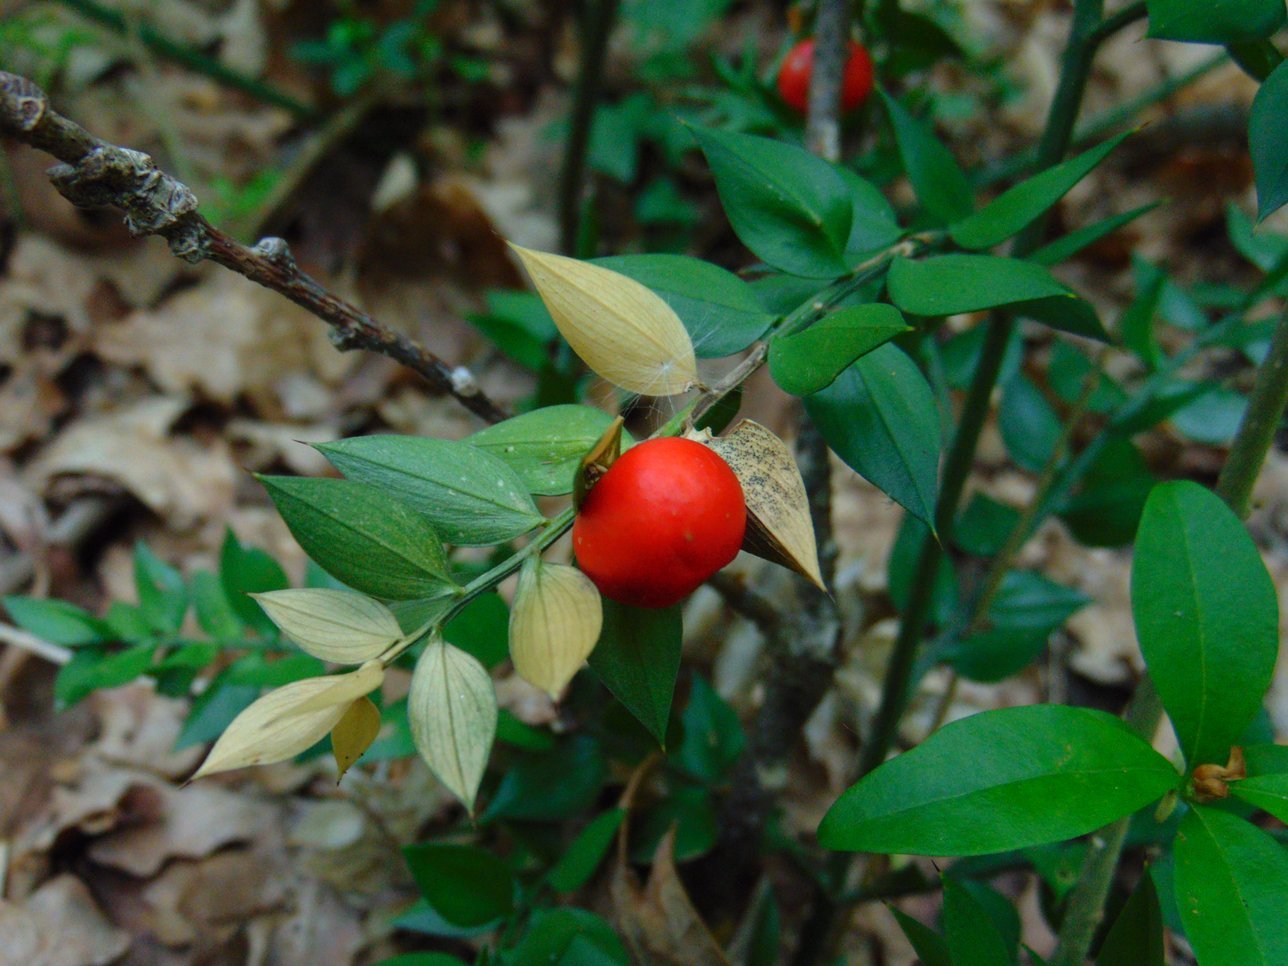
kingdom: Plantae
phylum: Tracheophyta
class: Liliopsida
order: Asparagales
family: Asparagaceae
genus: Ruscus
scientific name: Ruscus aculeatus
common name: Butcher's-broom
